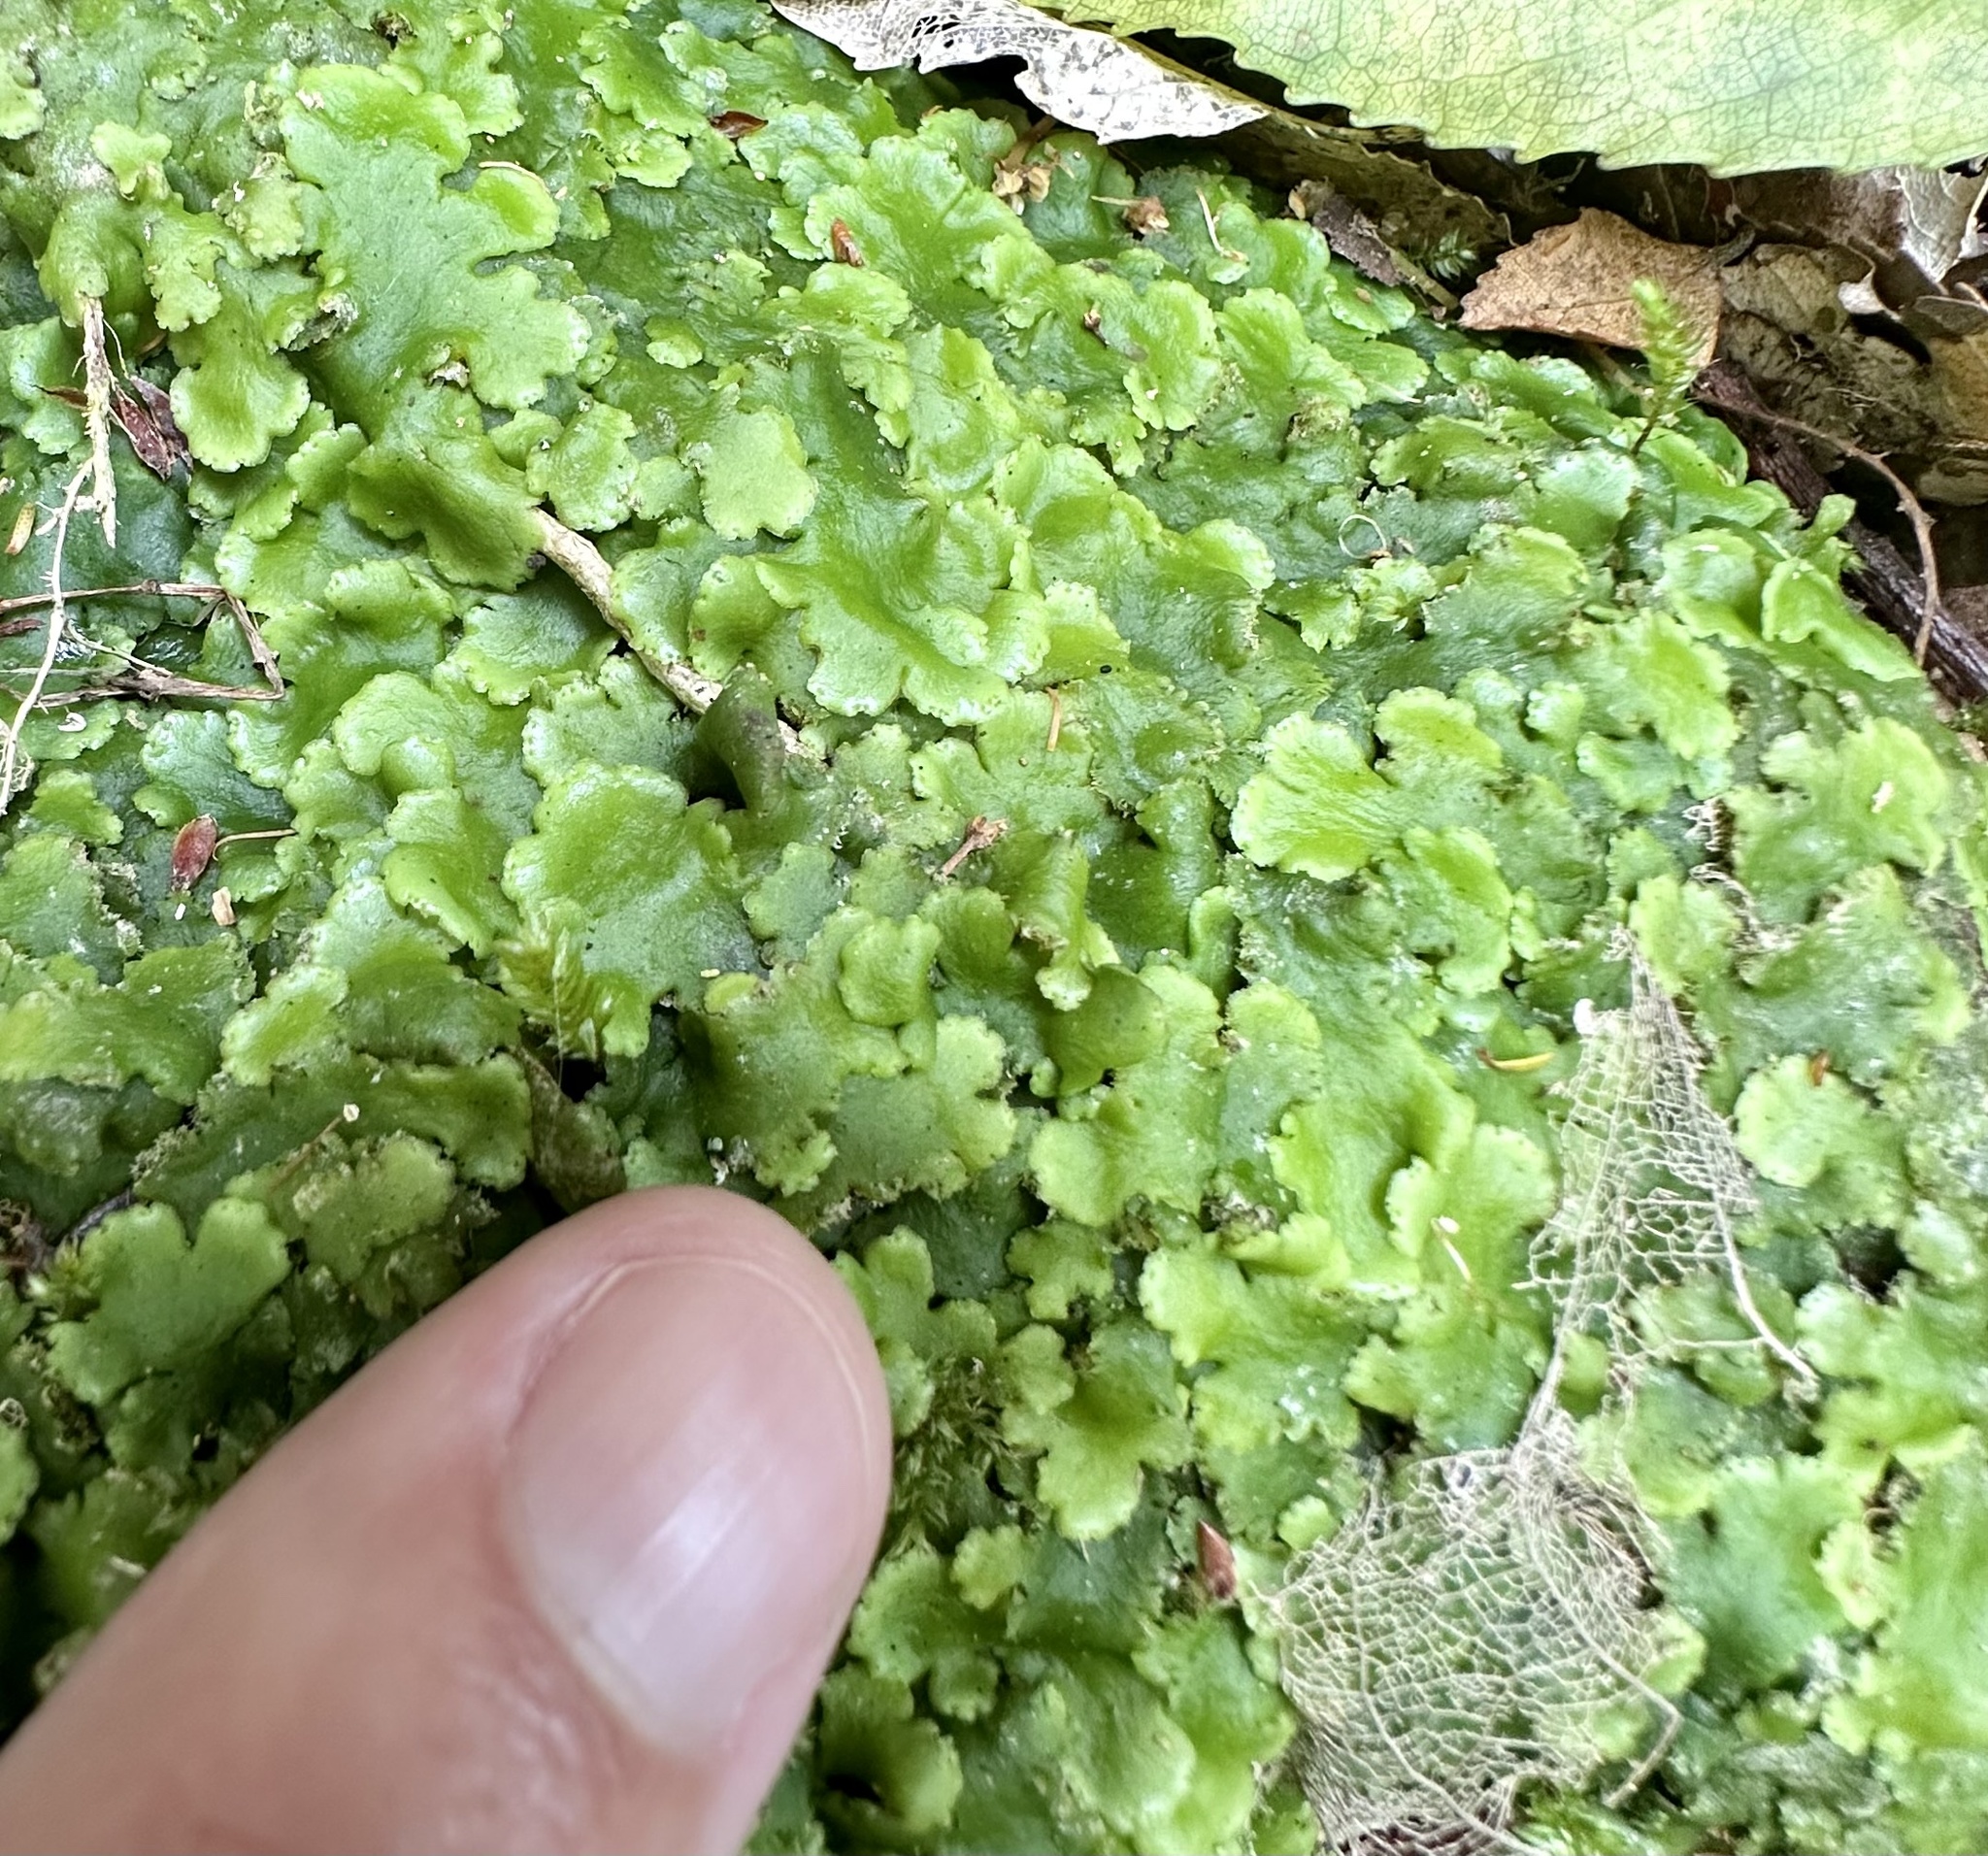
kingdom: Plantae
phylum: Marchantiophyta
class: Marchantiopsida
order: Marchantiales
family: Monocleaceae
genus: Monoclea
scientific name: Monoclea forsteri
